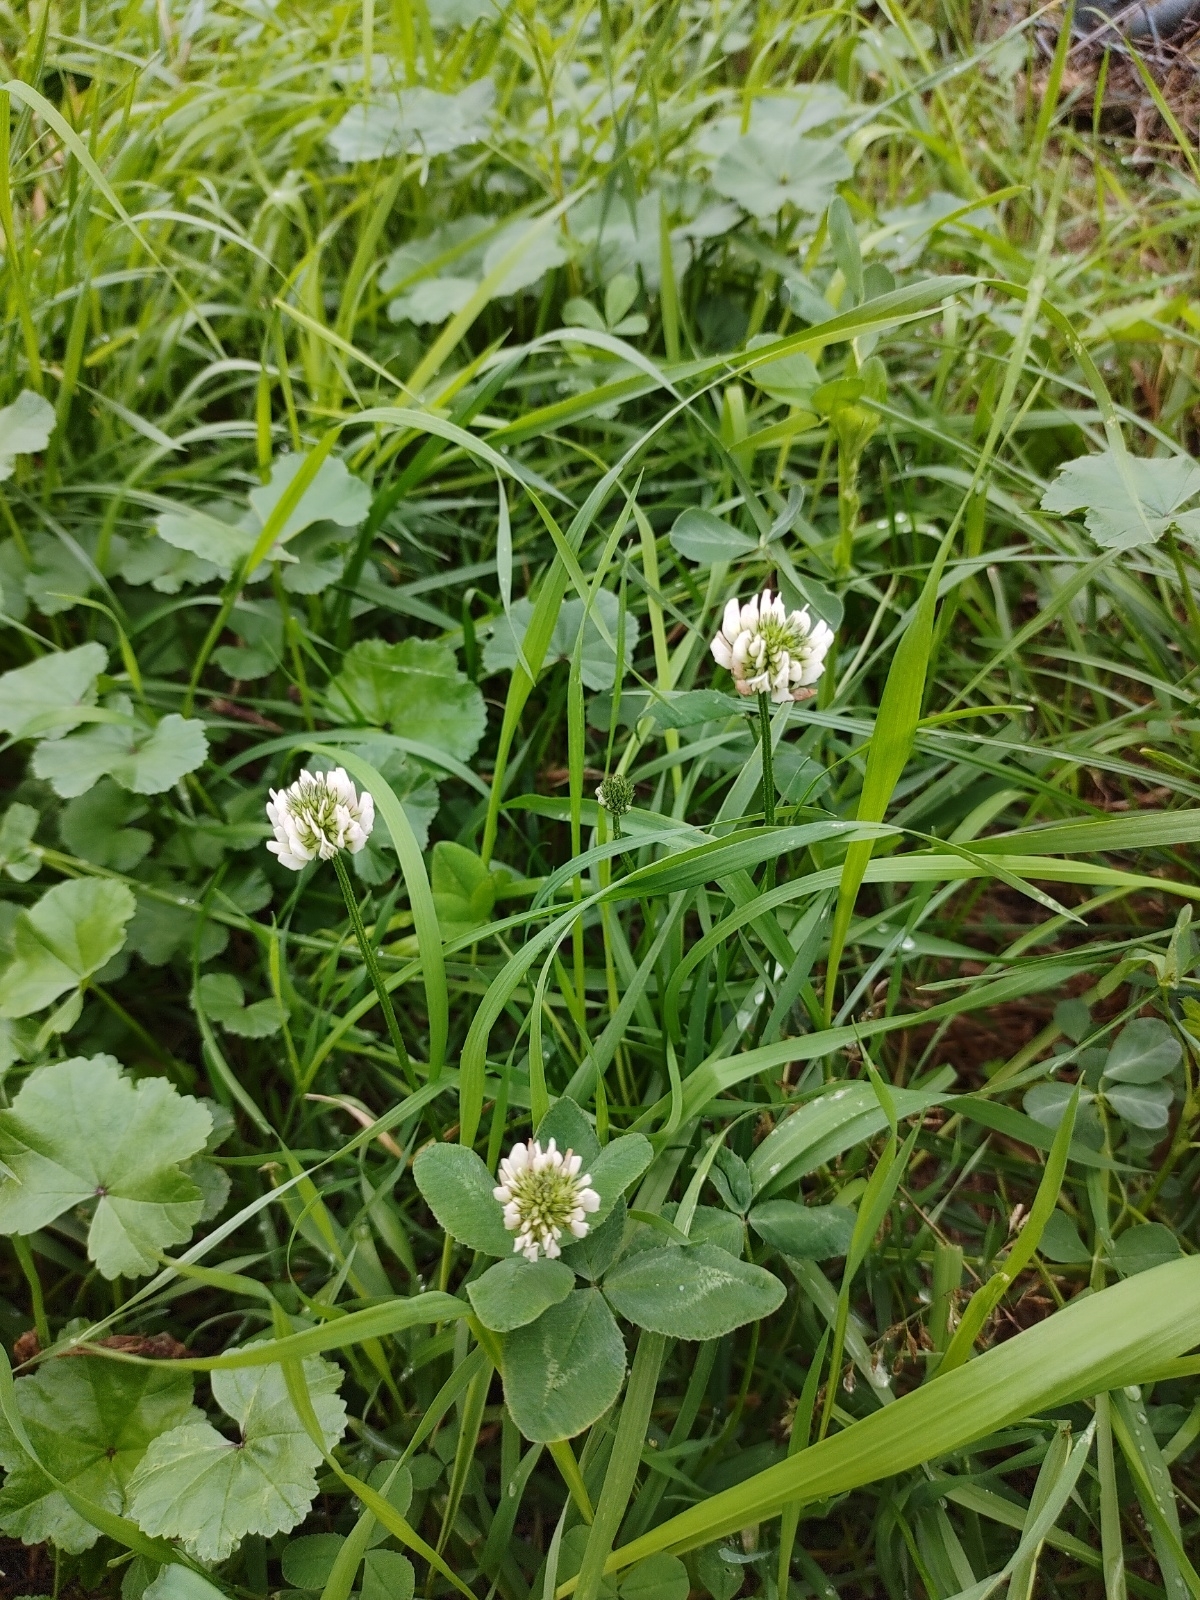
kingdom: Plantae
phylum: Tracheophyta
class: Magnoliopsida
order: Fabales
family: Fabaceae
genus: Trifolium
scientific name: Trifolium repens
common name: White clover
